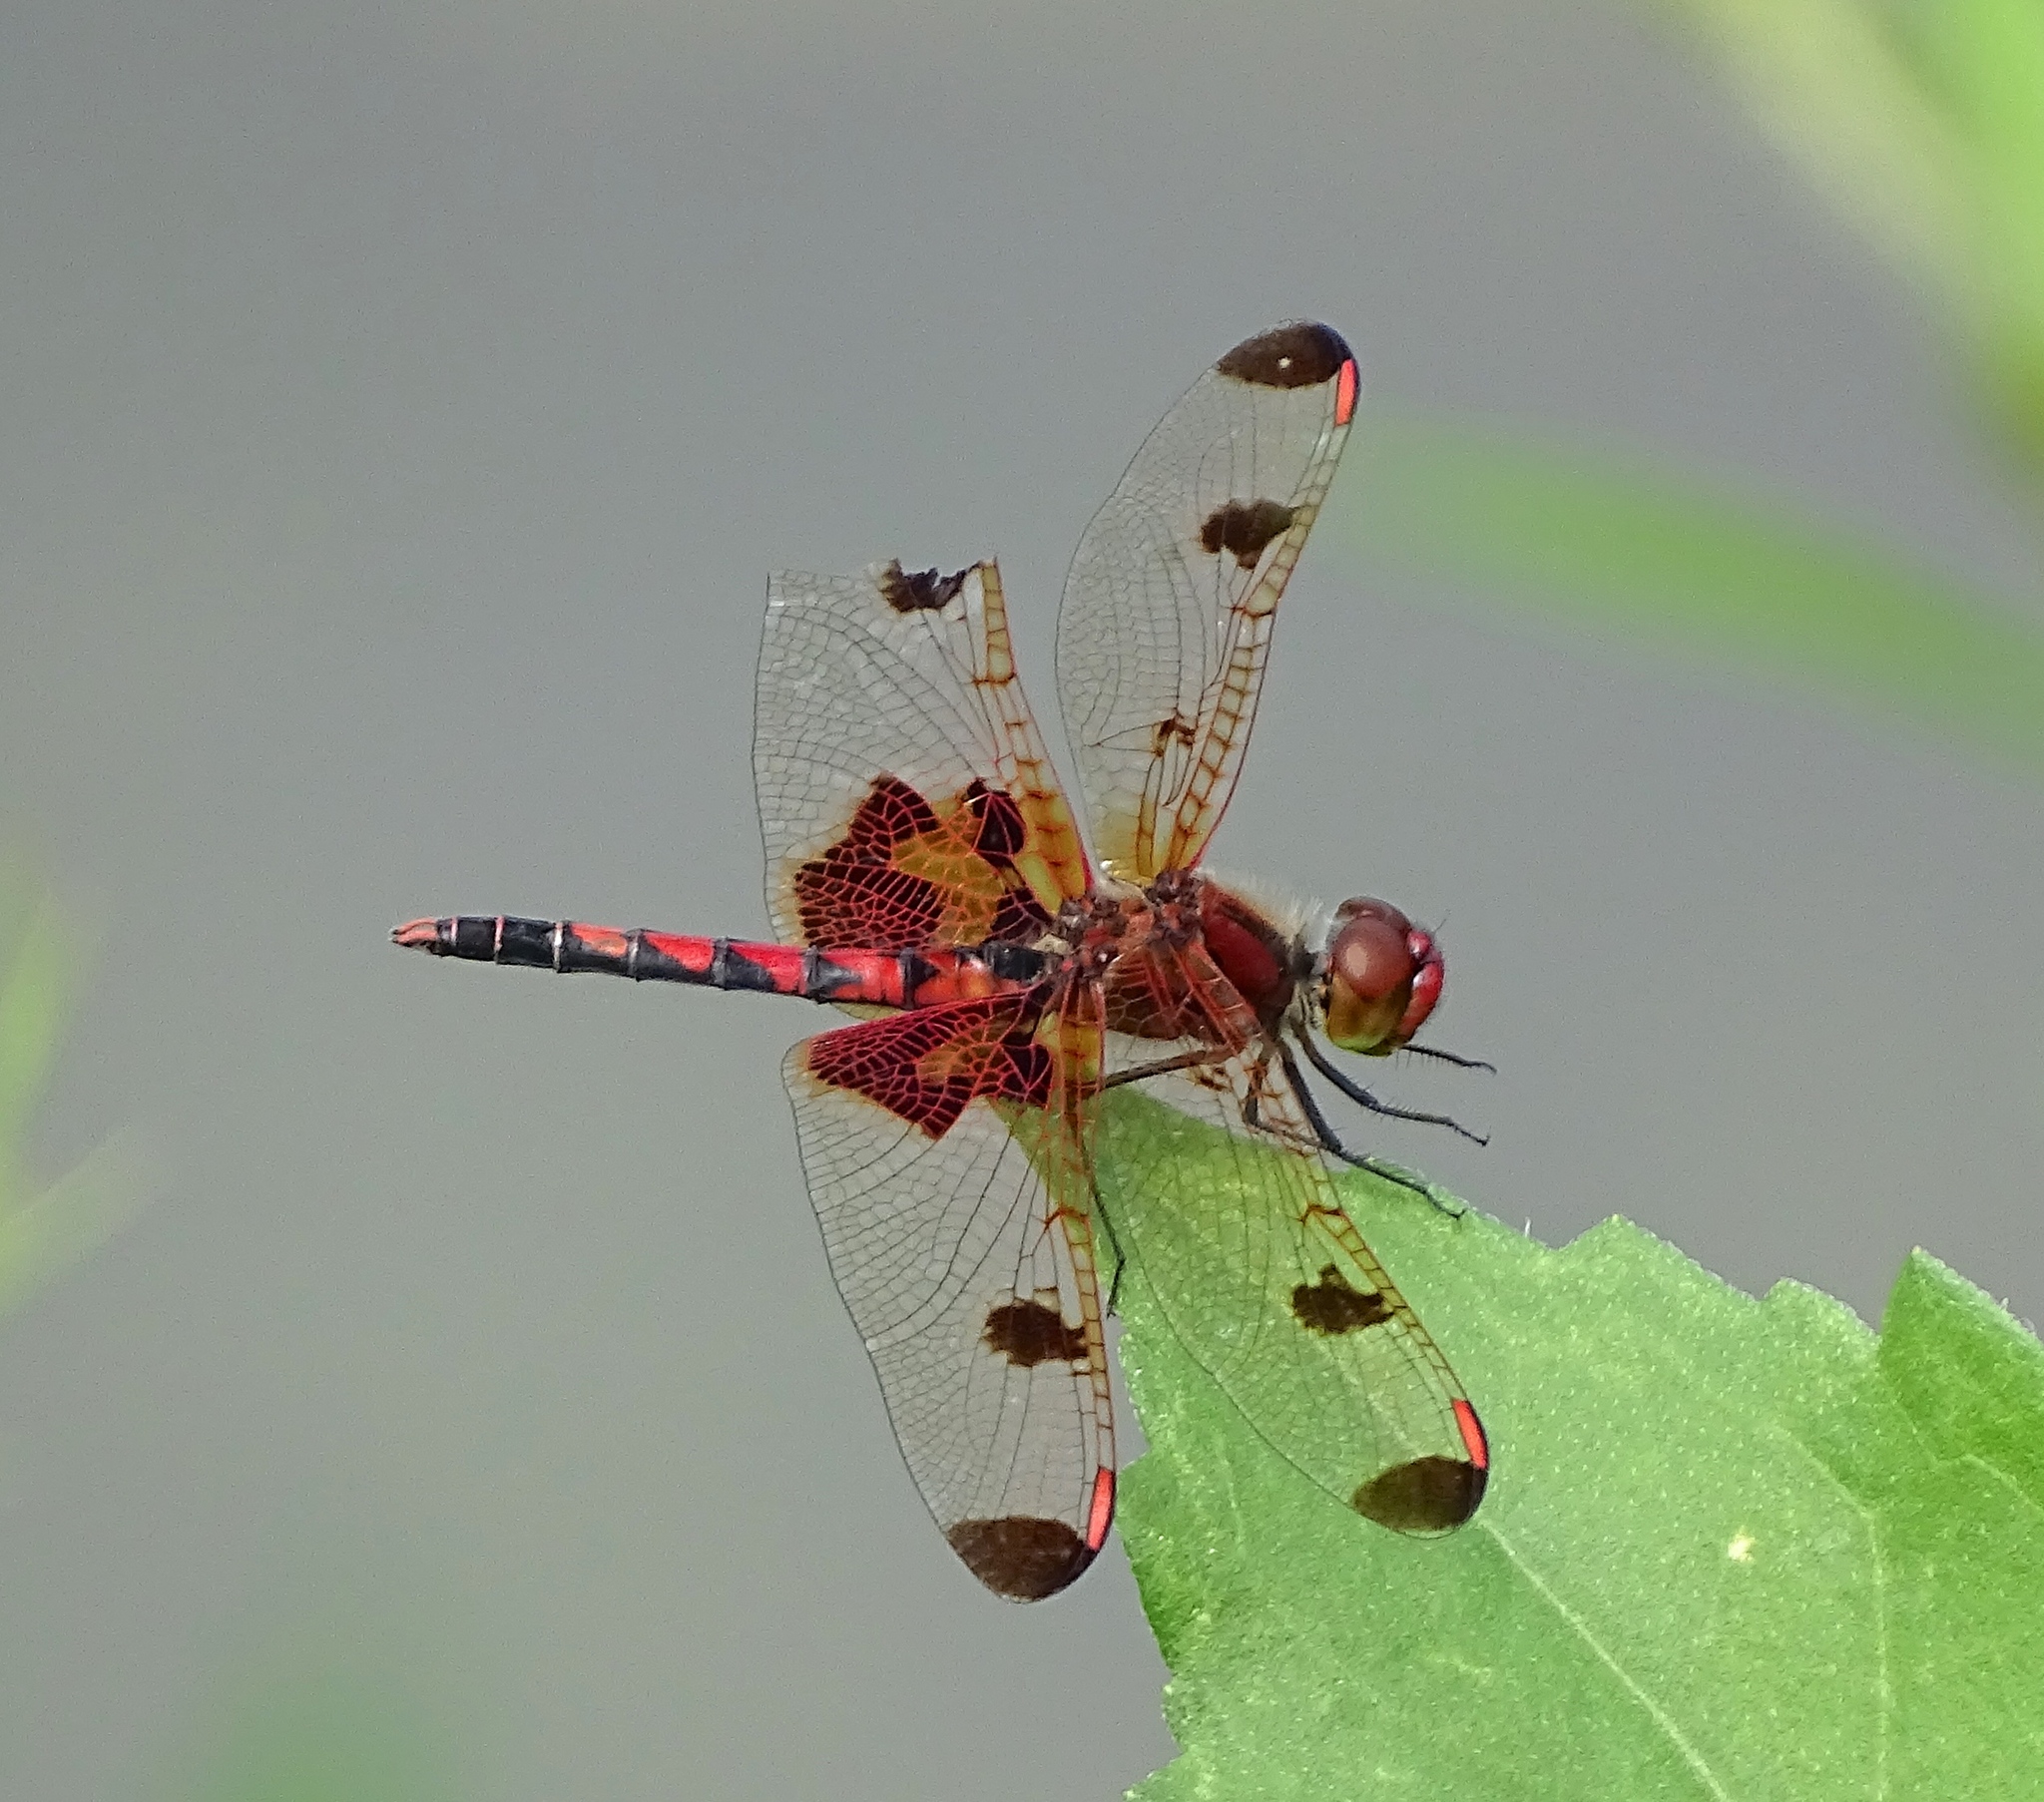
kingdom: Animalia
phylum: Arthropoda
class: Insecta
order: Odonata
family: Libellulidae
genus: Celithemis
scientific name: Celithemis elisa
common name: Calico pennant
